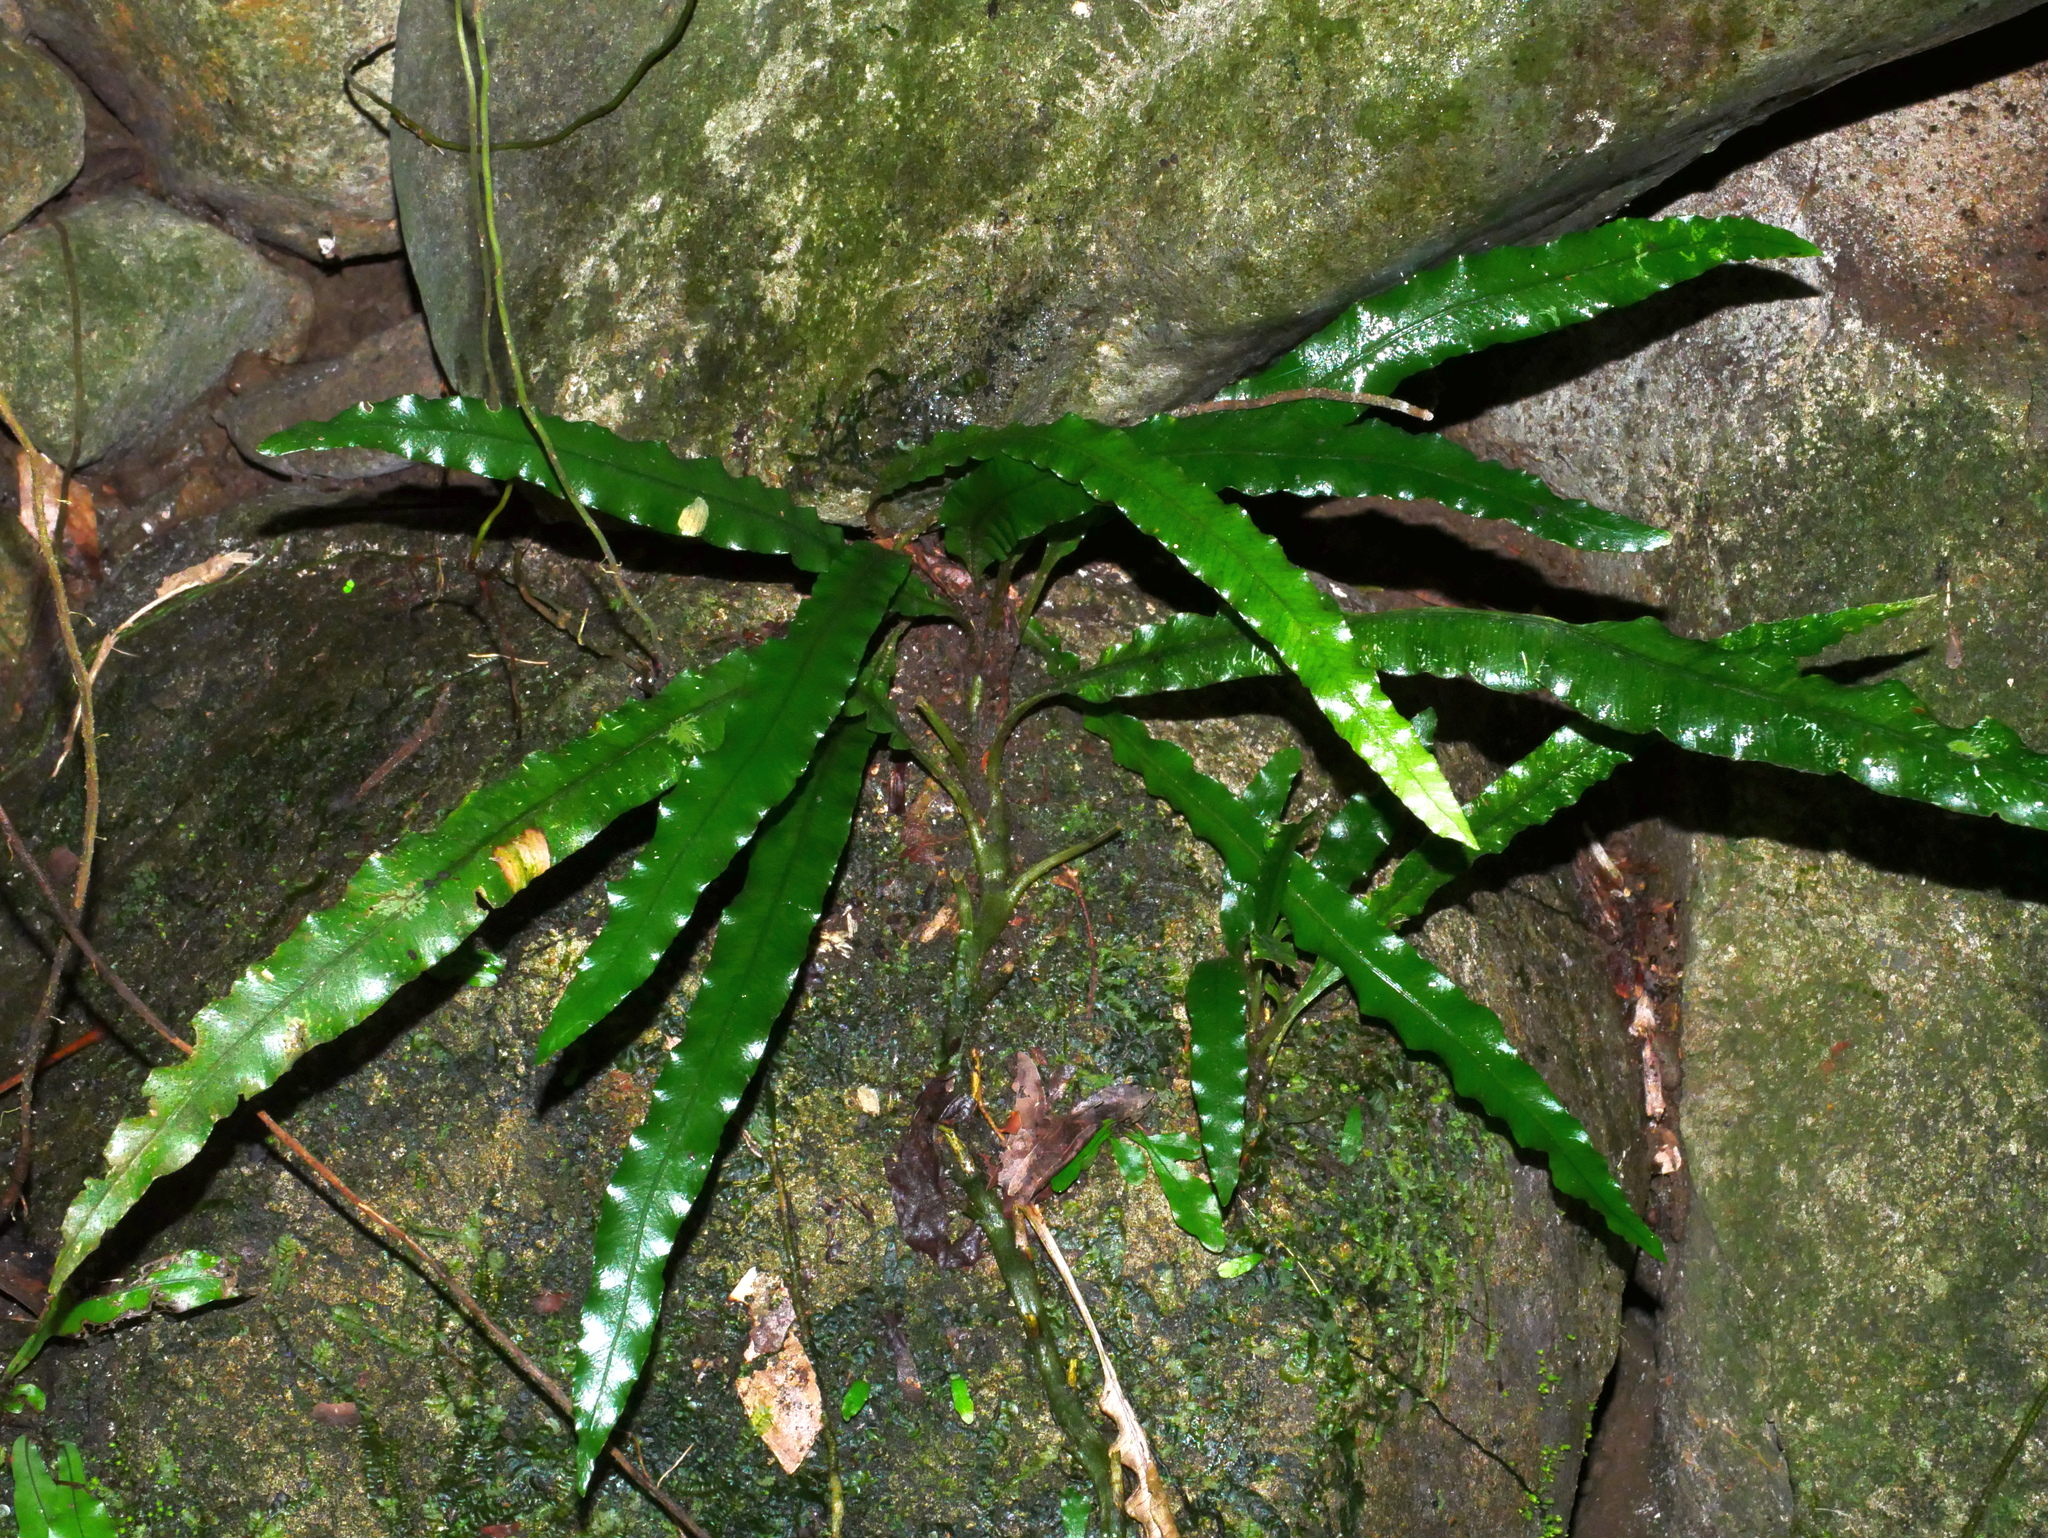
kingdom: Plantae
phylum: Tracheophyta
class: Polypodiopsida
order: Polypodiales
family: Lomariopsidaceae
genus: Lomariopsis
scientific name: Lomariopsis boninensis
